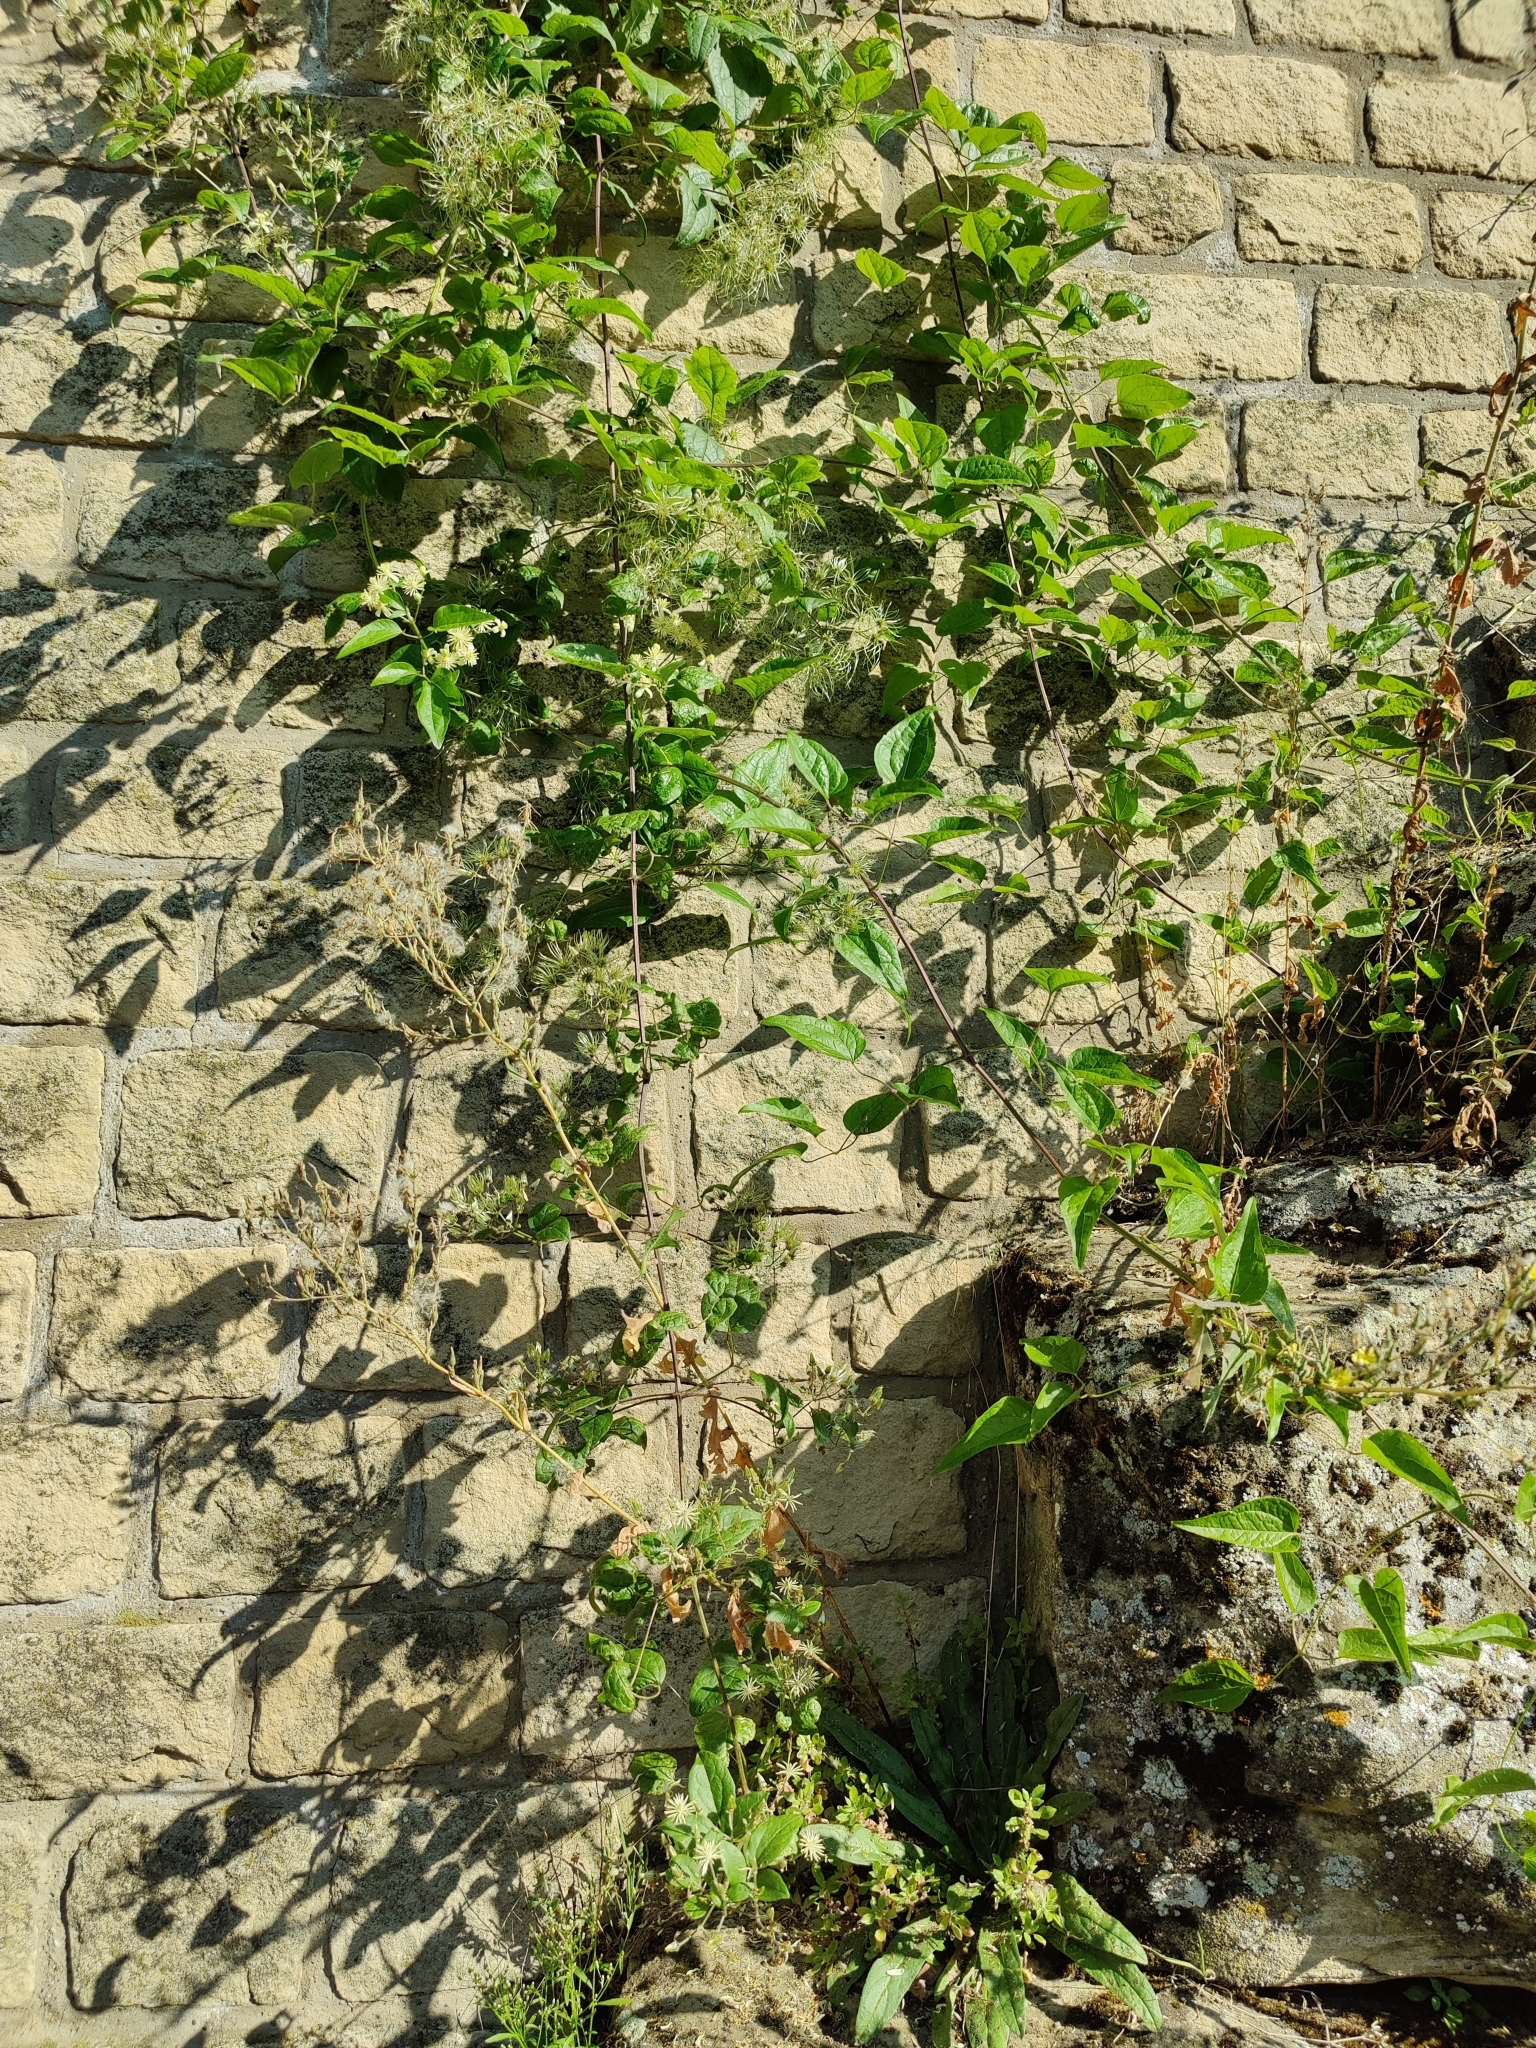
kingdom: Plantae
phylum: Tracheophyta
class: Magnoliopsida
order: Ranunculales
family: Ranunculaceae
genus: Clematis
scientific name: Clematis vitalba
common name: Evergreen clematis
